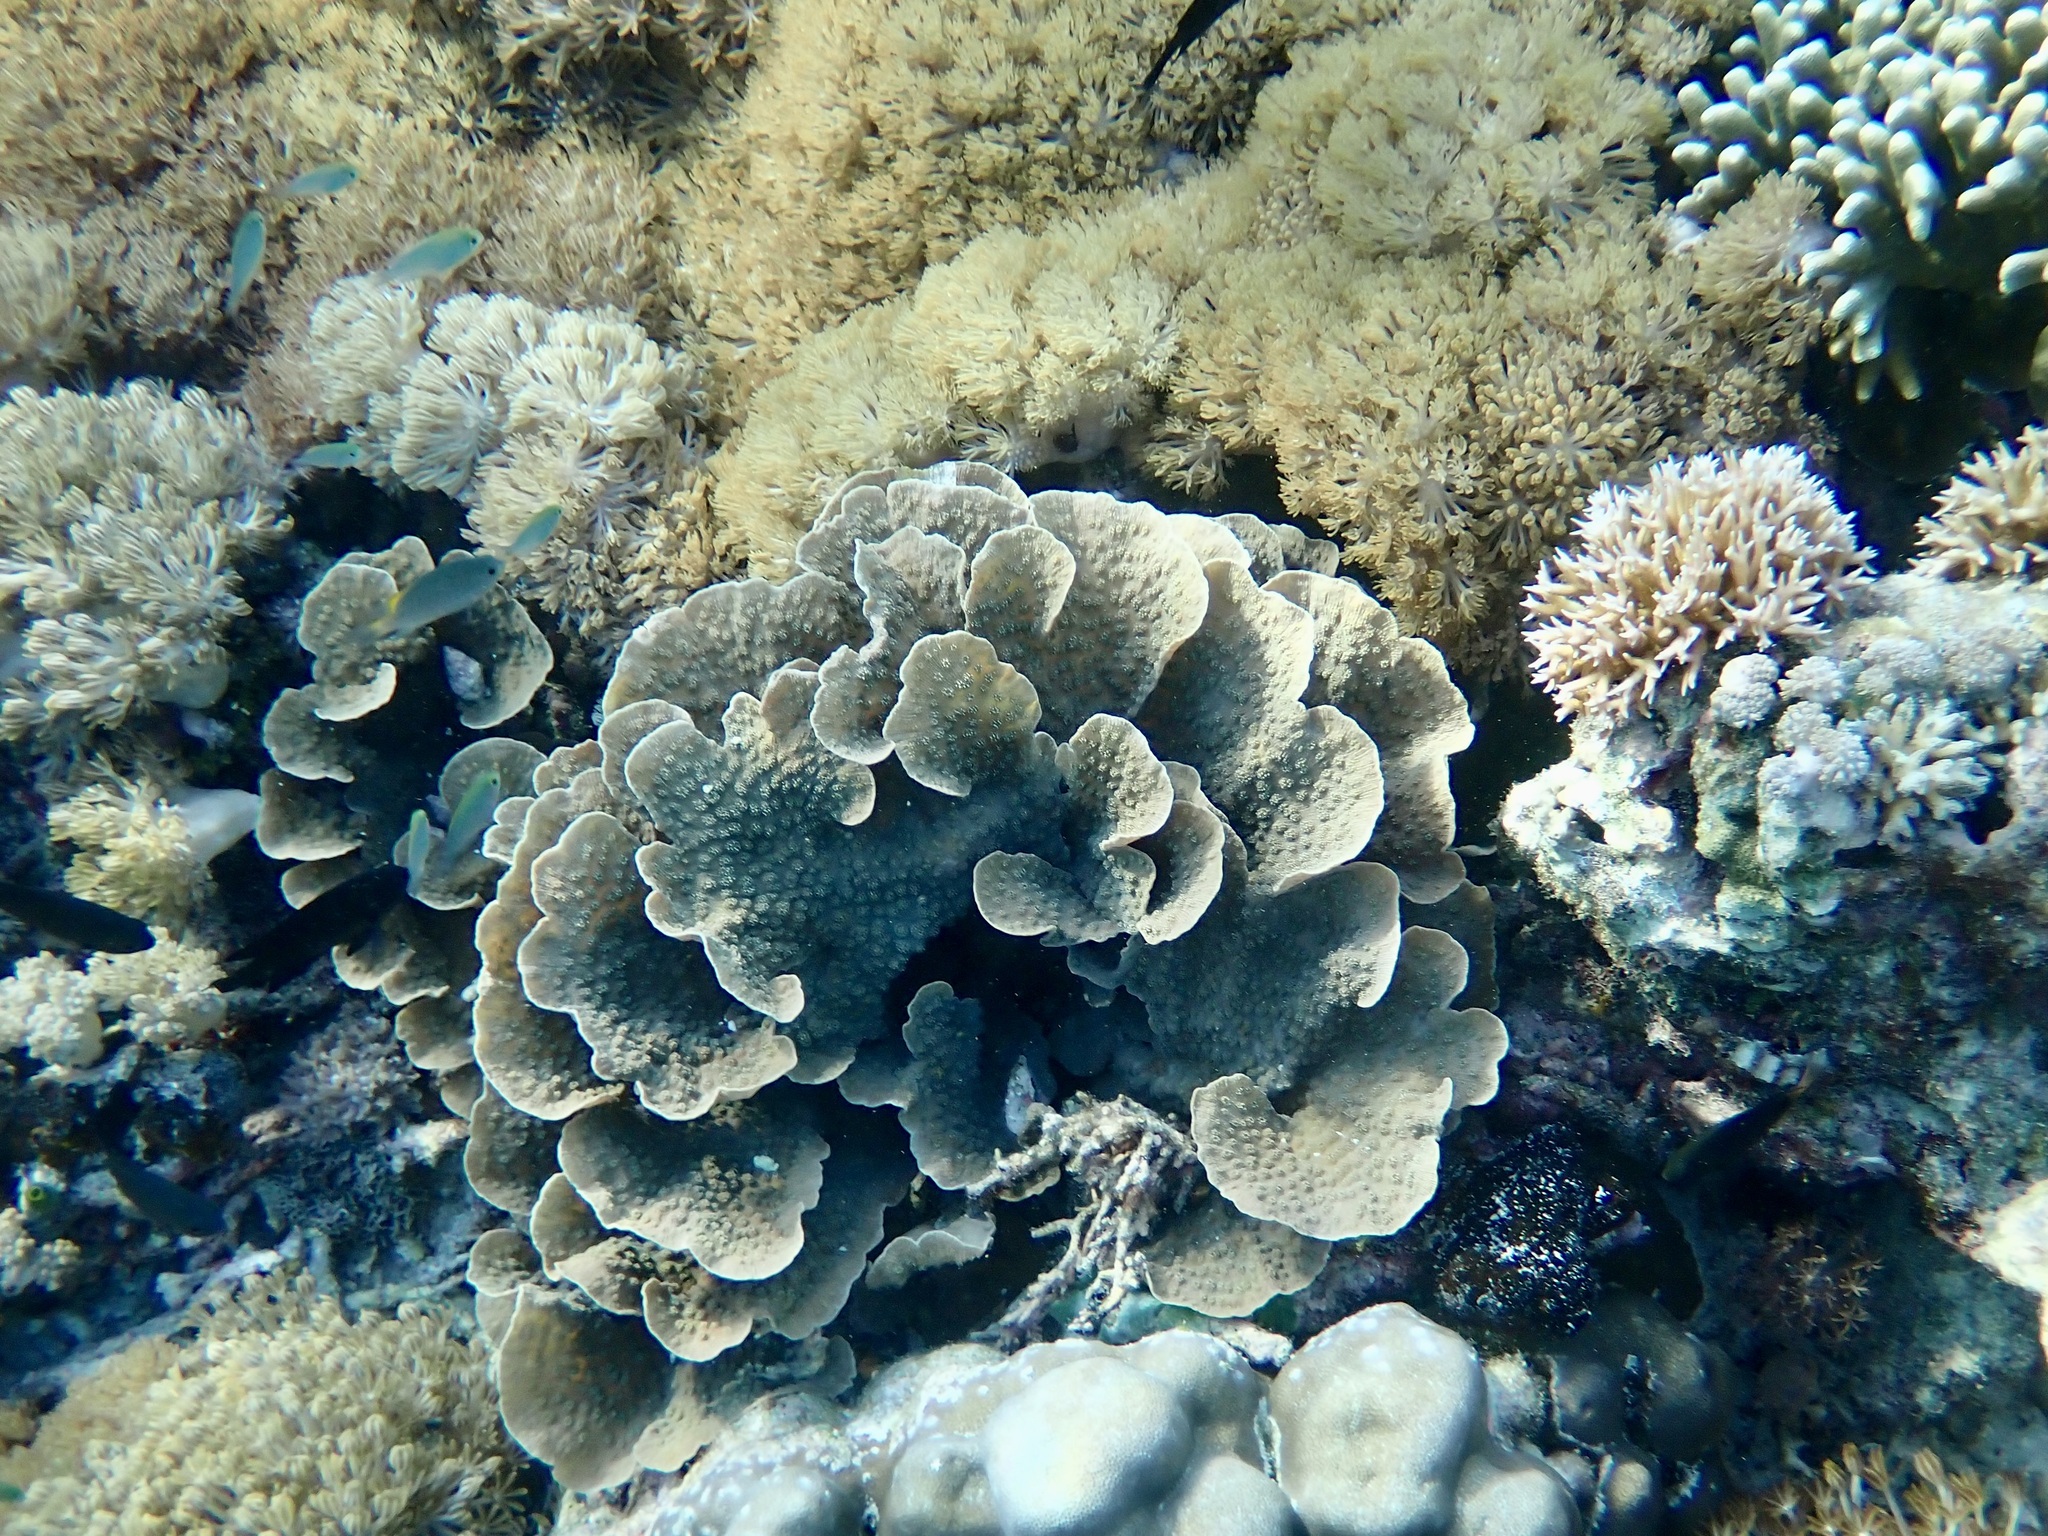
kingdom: Animalia
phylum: Cnidaria
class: Anthozoa
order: Scleractinia
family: Merulinidae
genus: Echinopora
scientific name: Echinopora lamellosa
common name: Hedgehog coral
